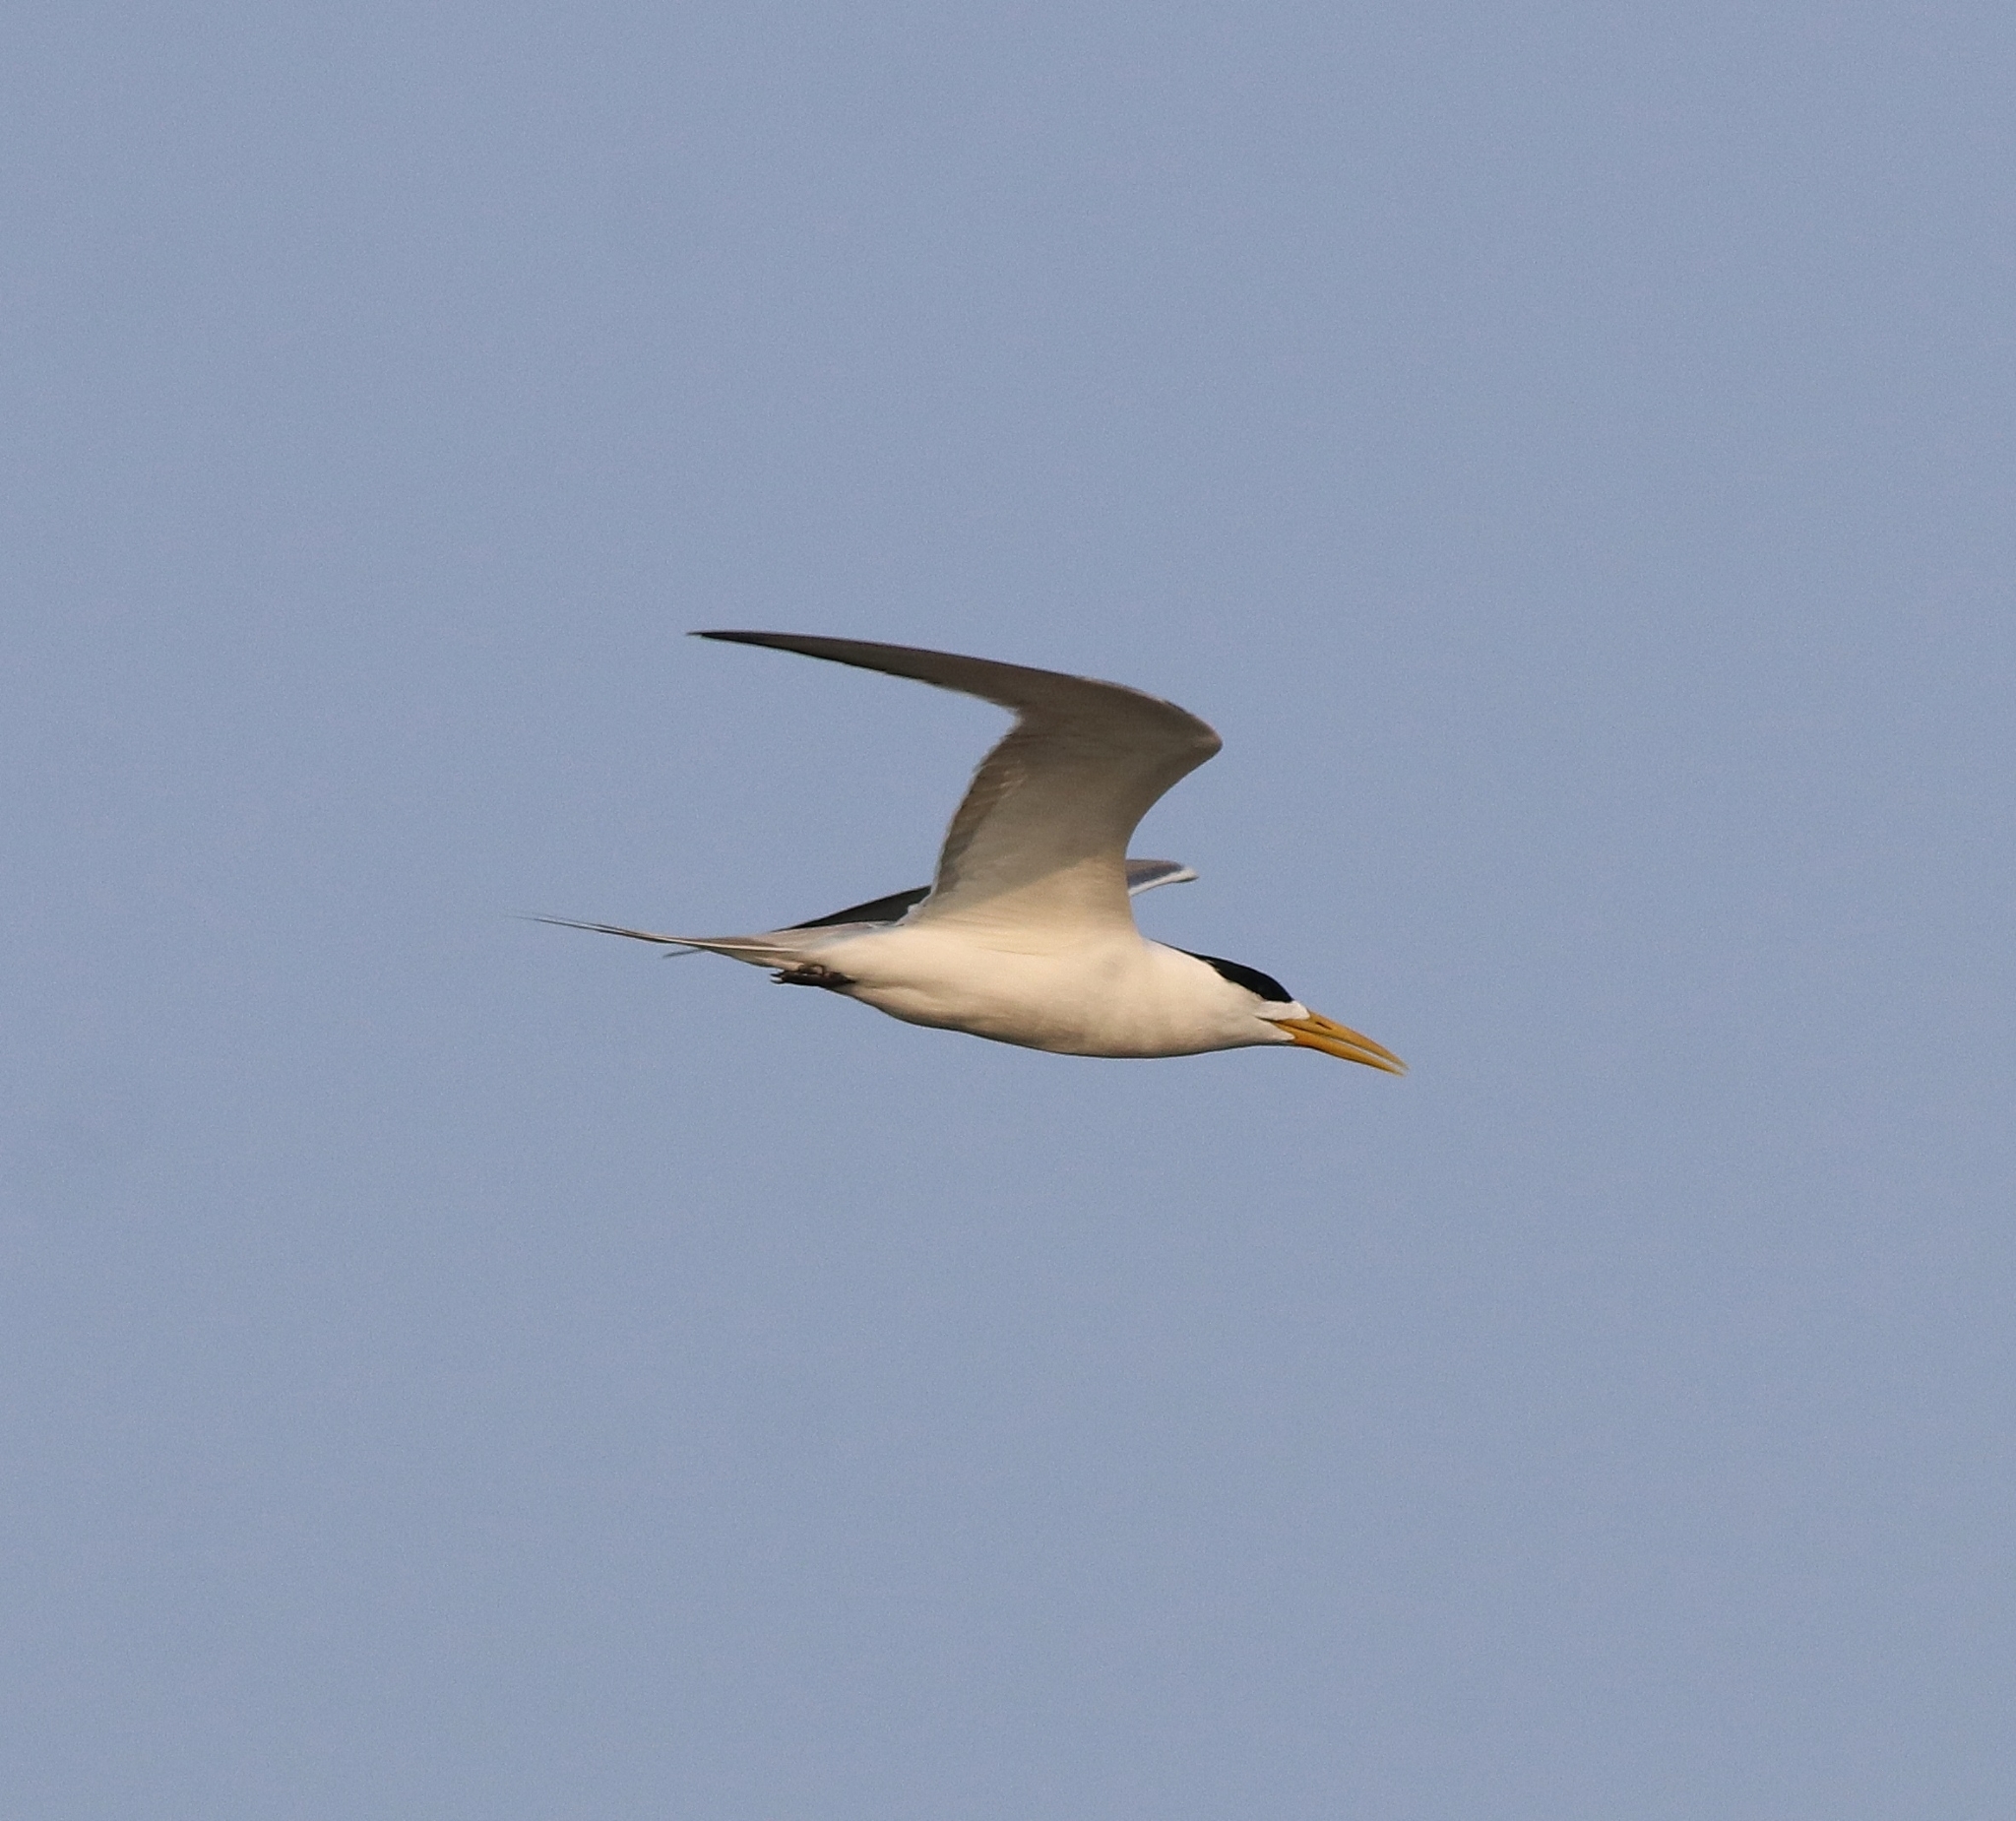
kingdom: Animalia
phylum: Chordata
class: Aves
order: Charadriiformes
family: Laridae
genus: Thalasseus
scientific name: Thalasseus bergii
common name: Greater crested tern
